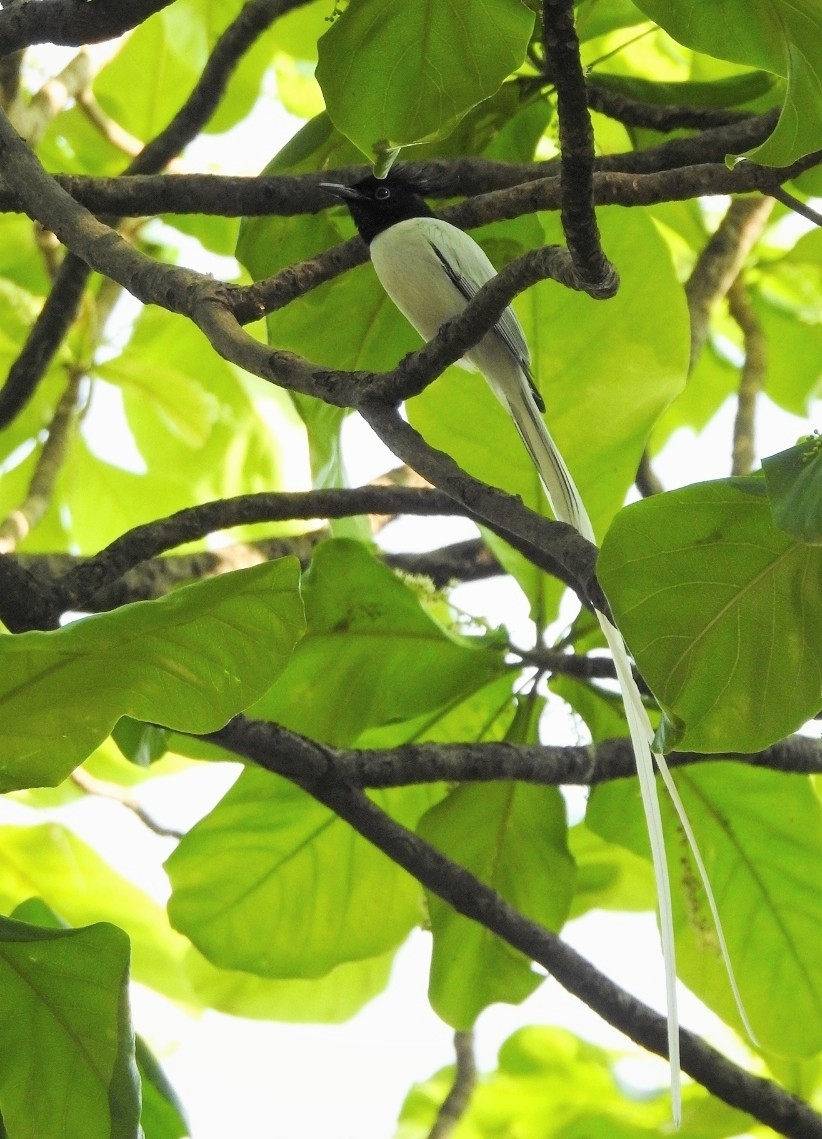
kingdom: Animalia
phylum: Chordata
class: Aves
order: Passeriformes
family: Monarchidae
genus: Terpsiphone
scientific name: Terpsiphone paradisi
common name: Indian paradise flycatcher
